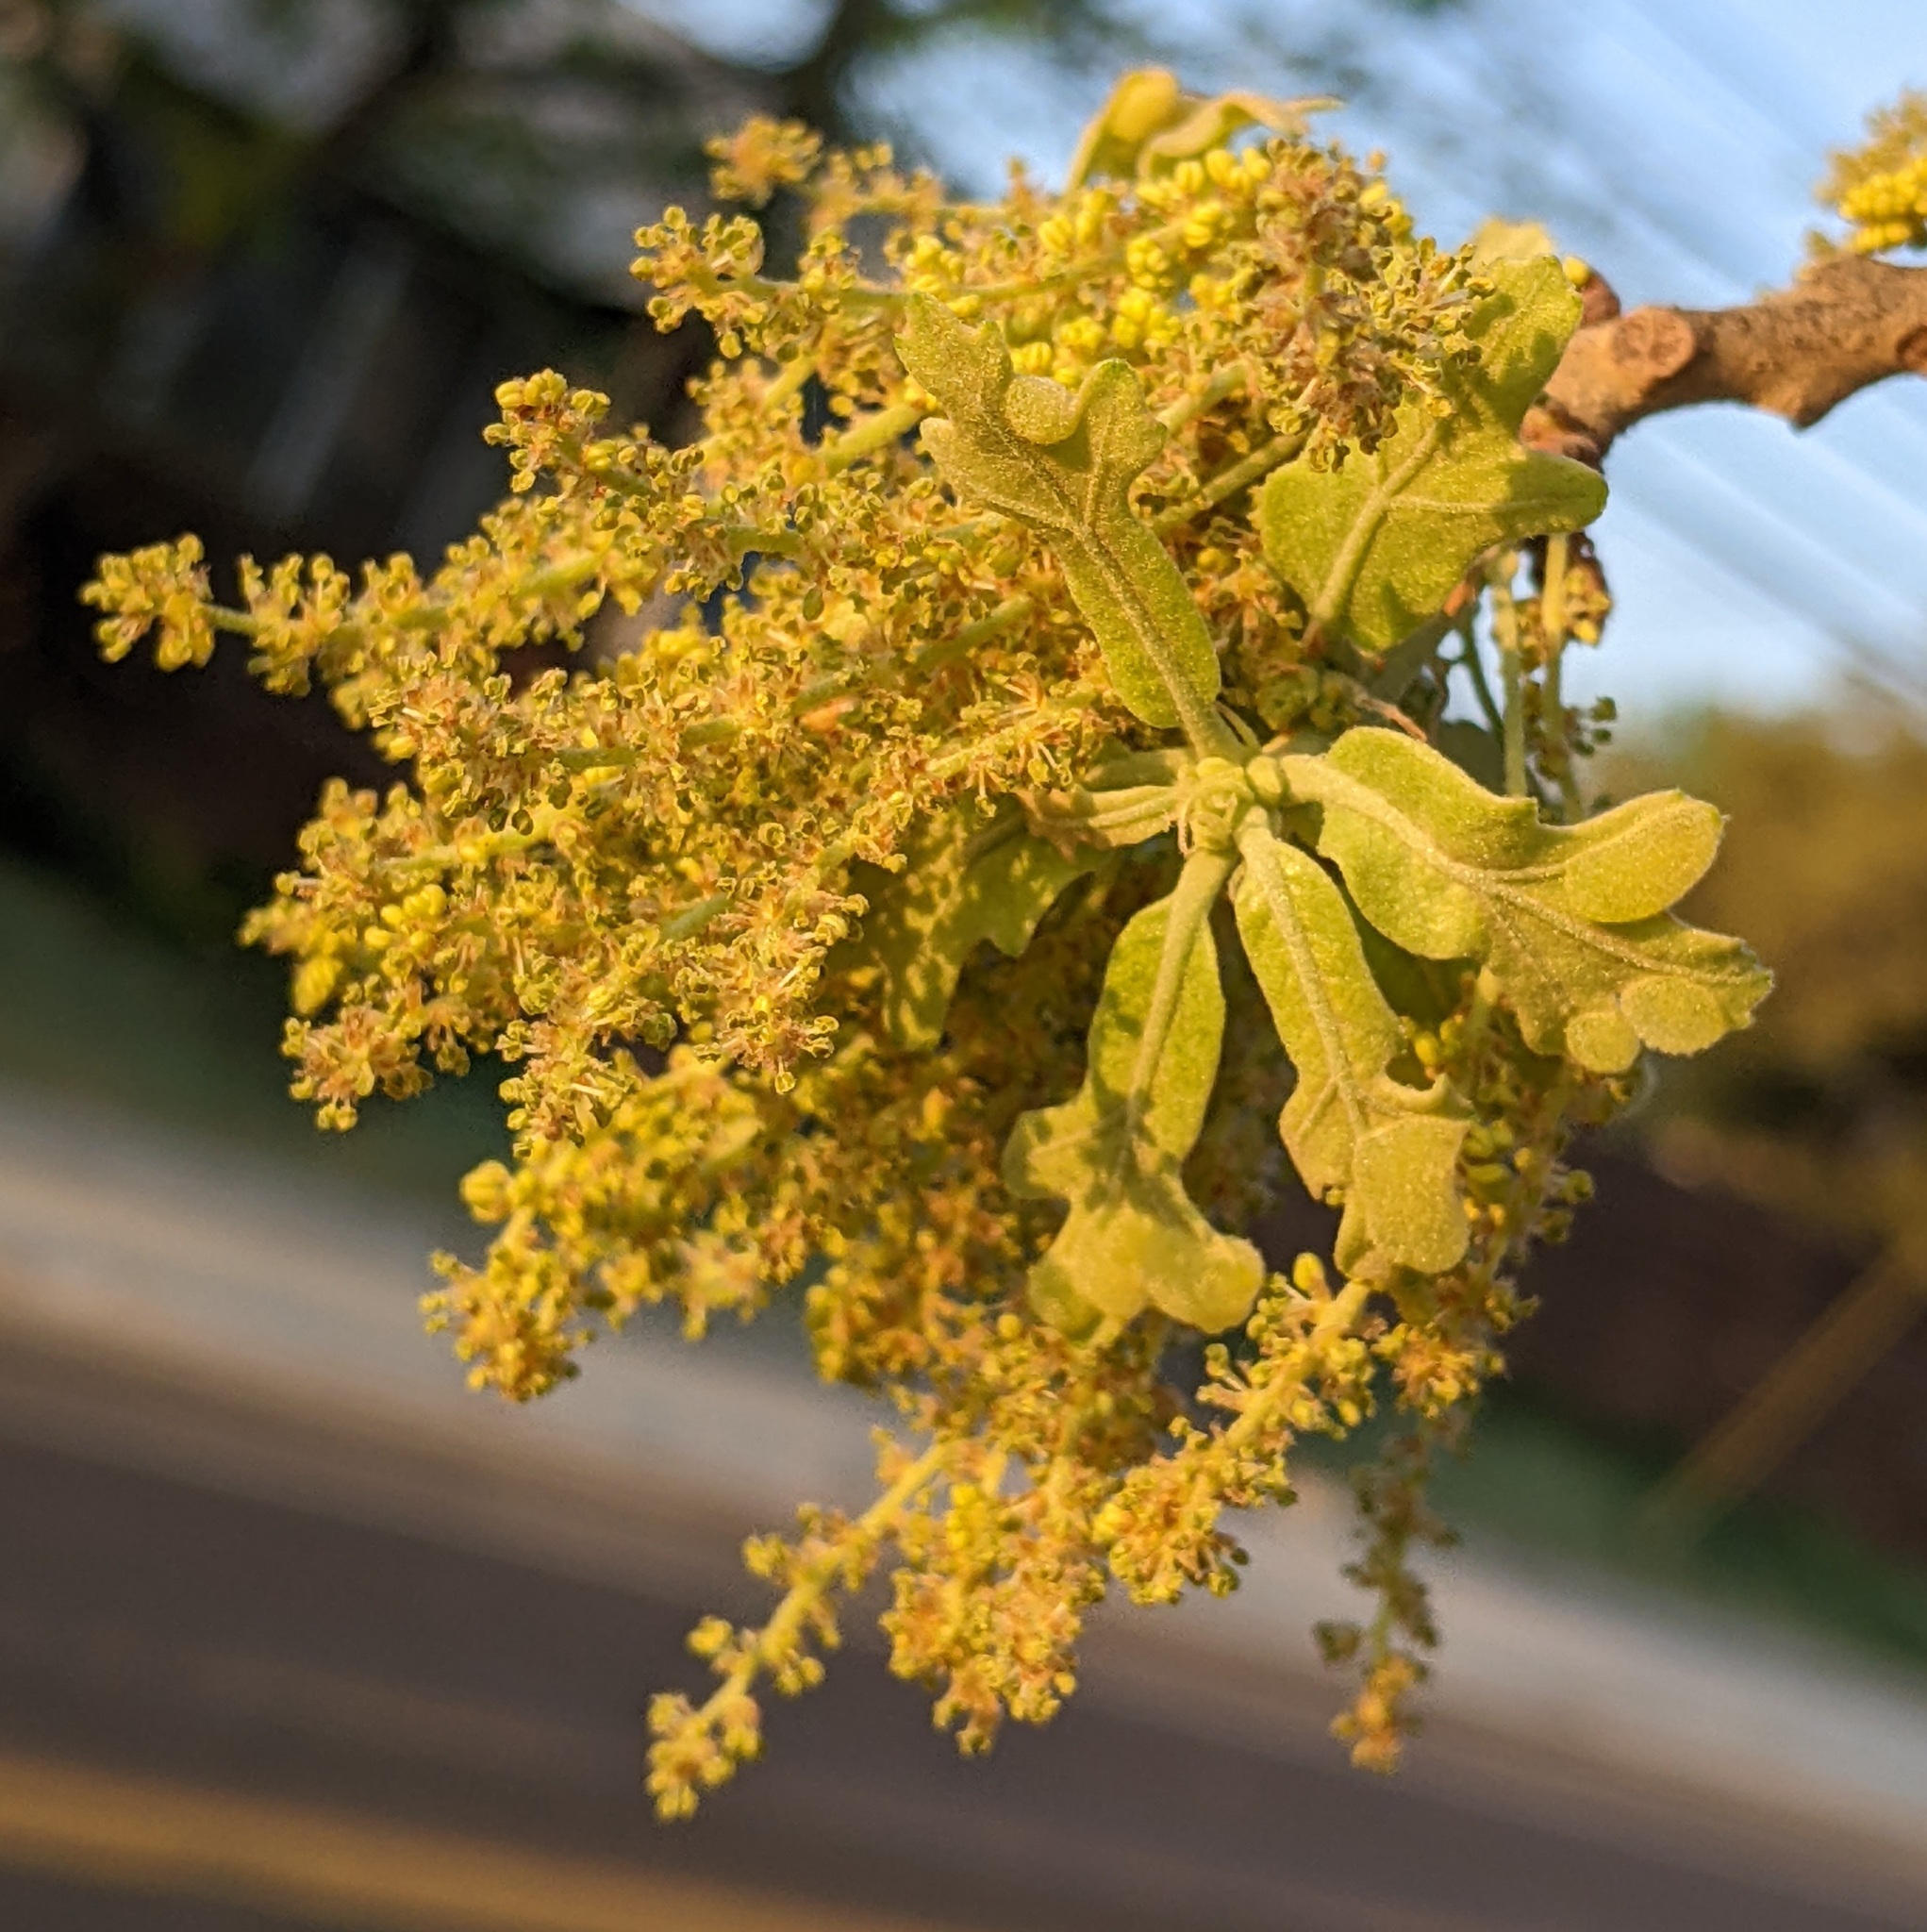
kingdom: Animalia
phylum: Arthropoda
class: Insecta
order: Hymenoptera
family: Cynipidae
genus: Neuroterus
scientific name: Neuroterus quercusirregularis
